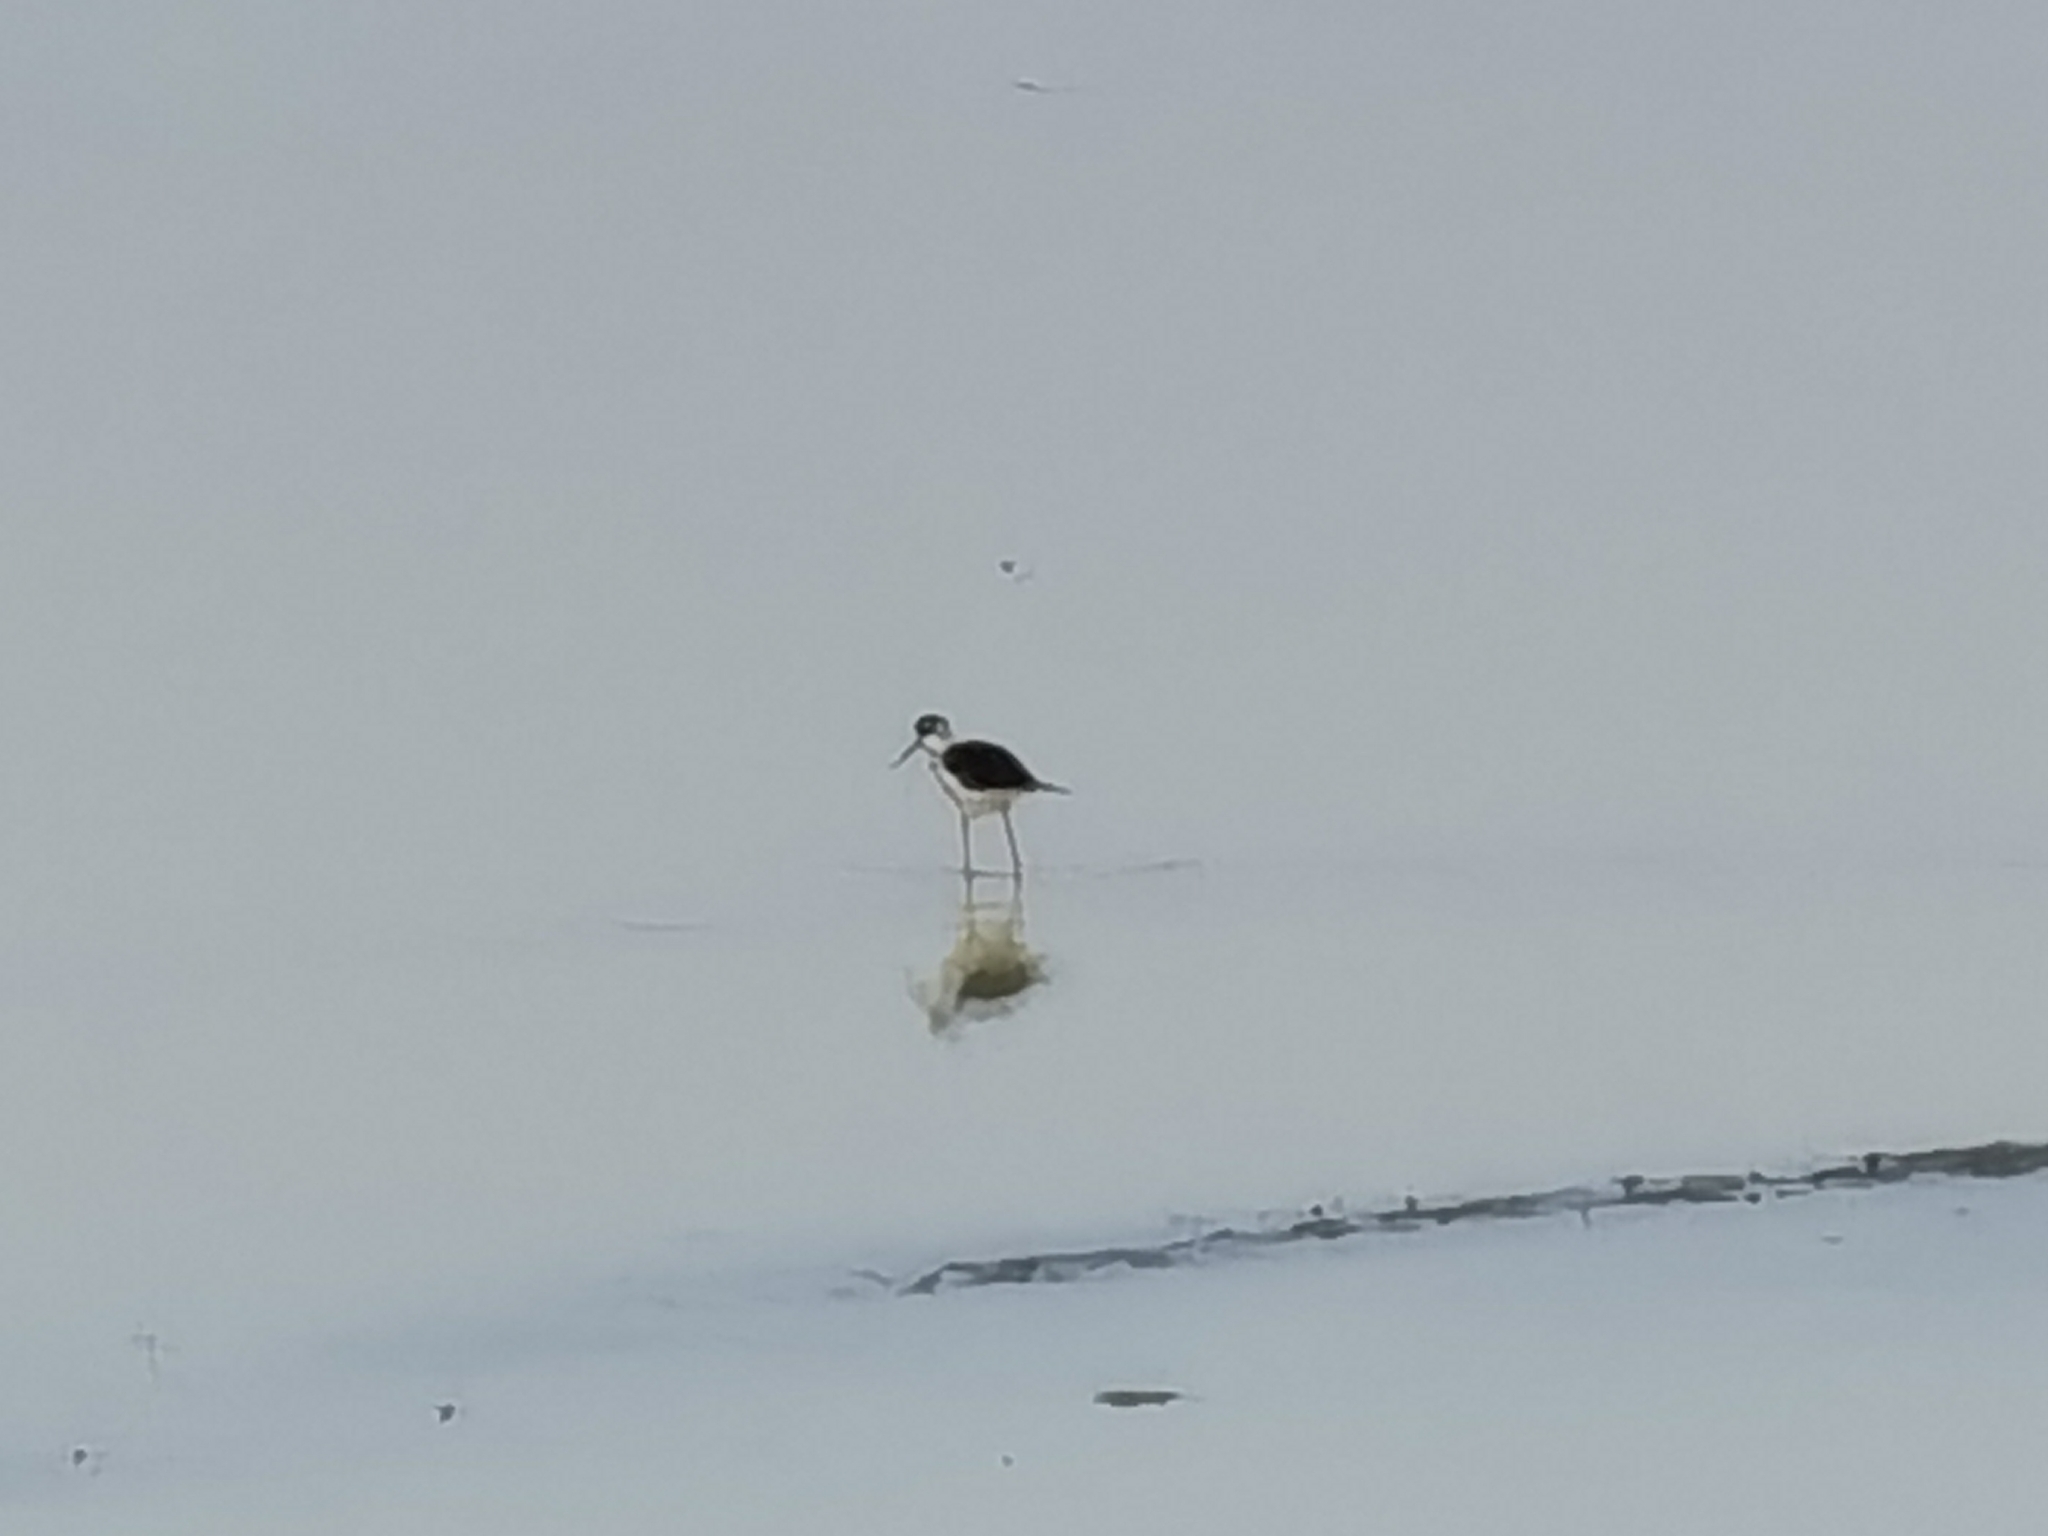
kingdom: Animalia
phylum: Chordata
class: Aves
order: Charadriiformes
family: Recurvirostridae
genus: Himantopus
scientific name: Himantopus himantopus
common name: Black-winged stilt
